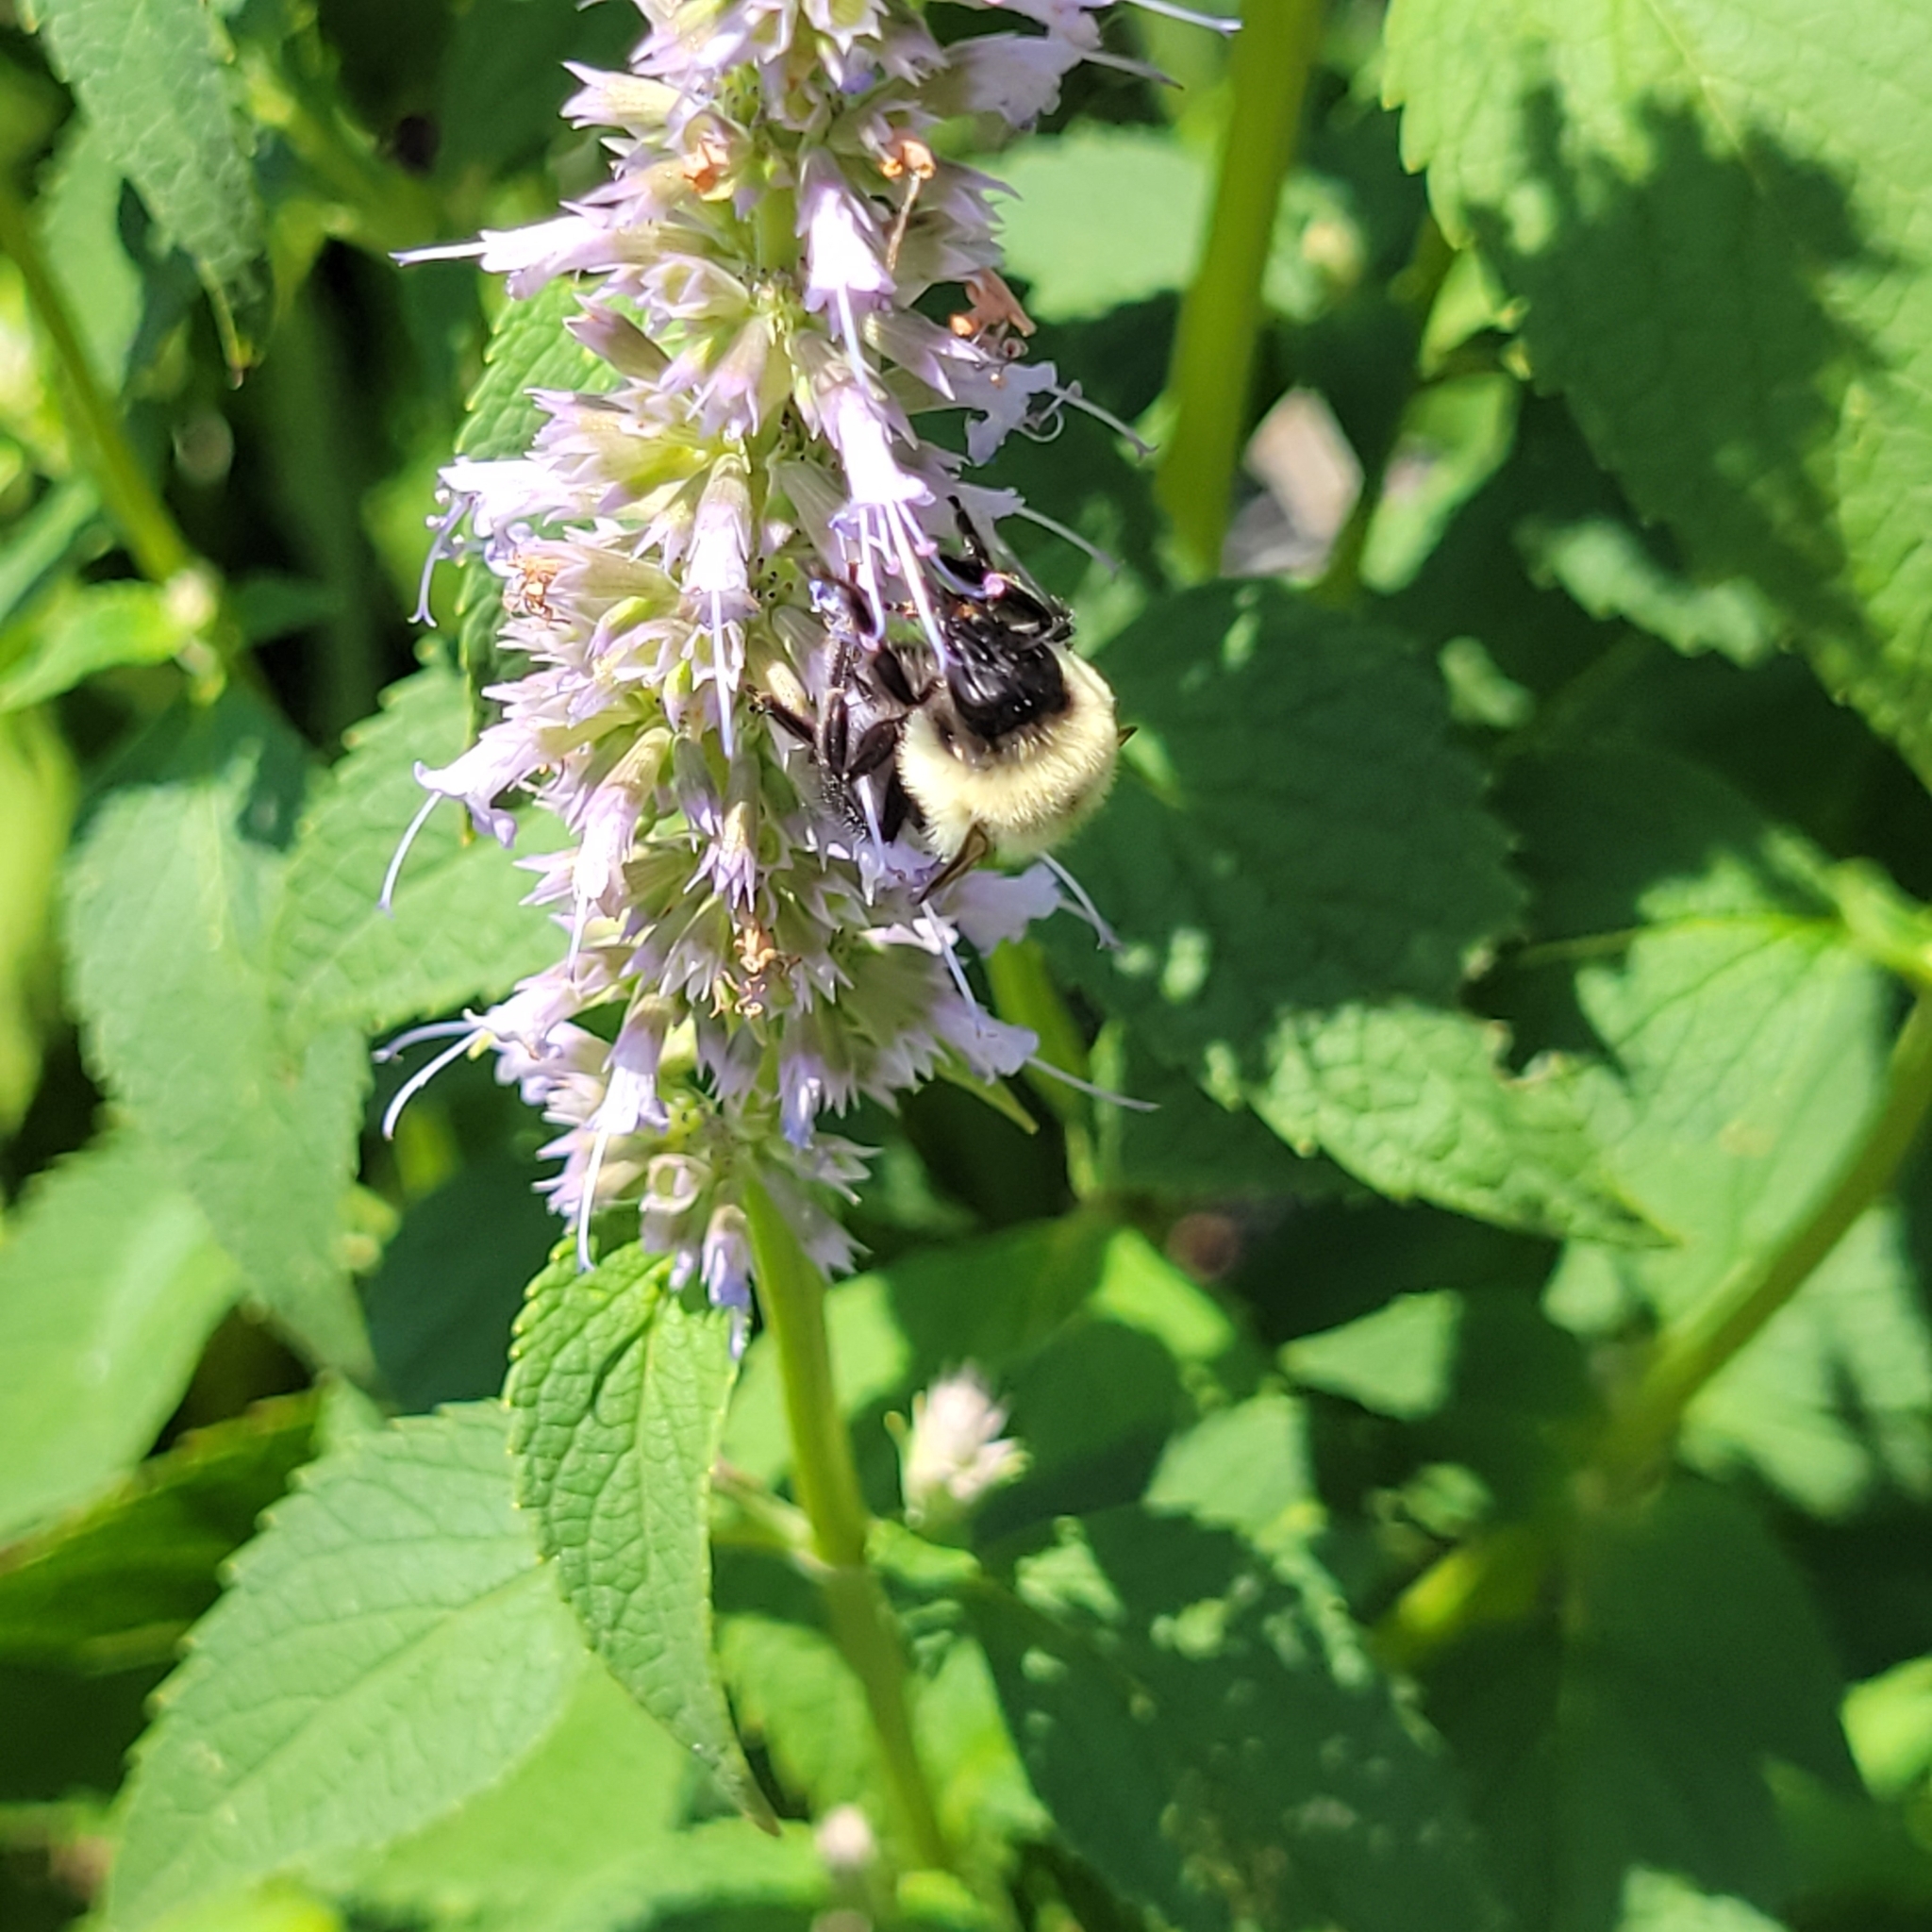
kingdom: Animalia
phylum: Arthropoda
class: Insecta
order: Hymenoptera
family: Apidae
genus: Bombus
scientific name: Bombus impatiens
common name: Common eastern bumble bee
